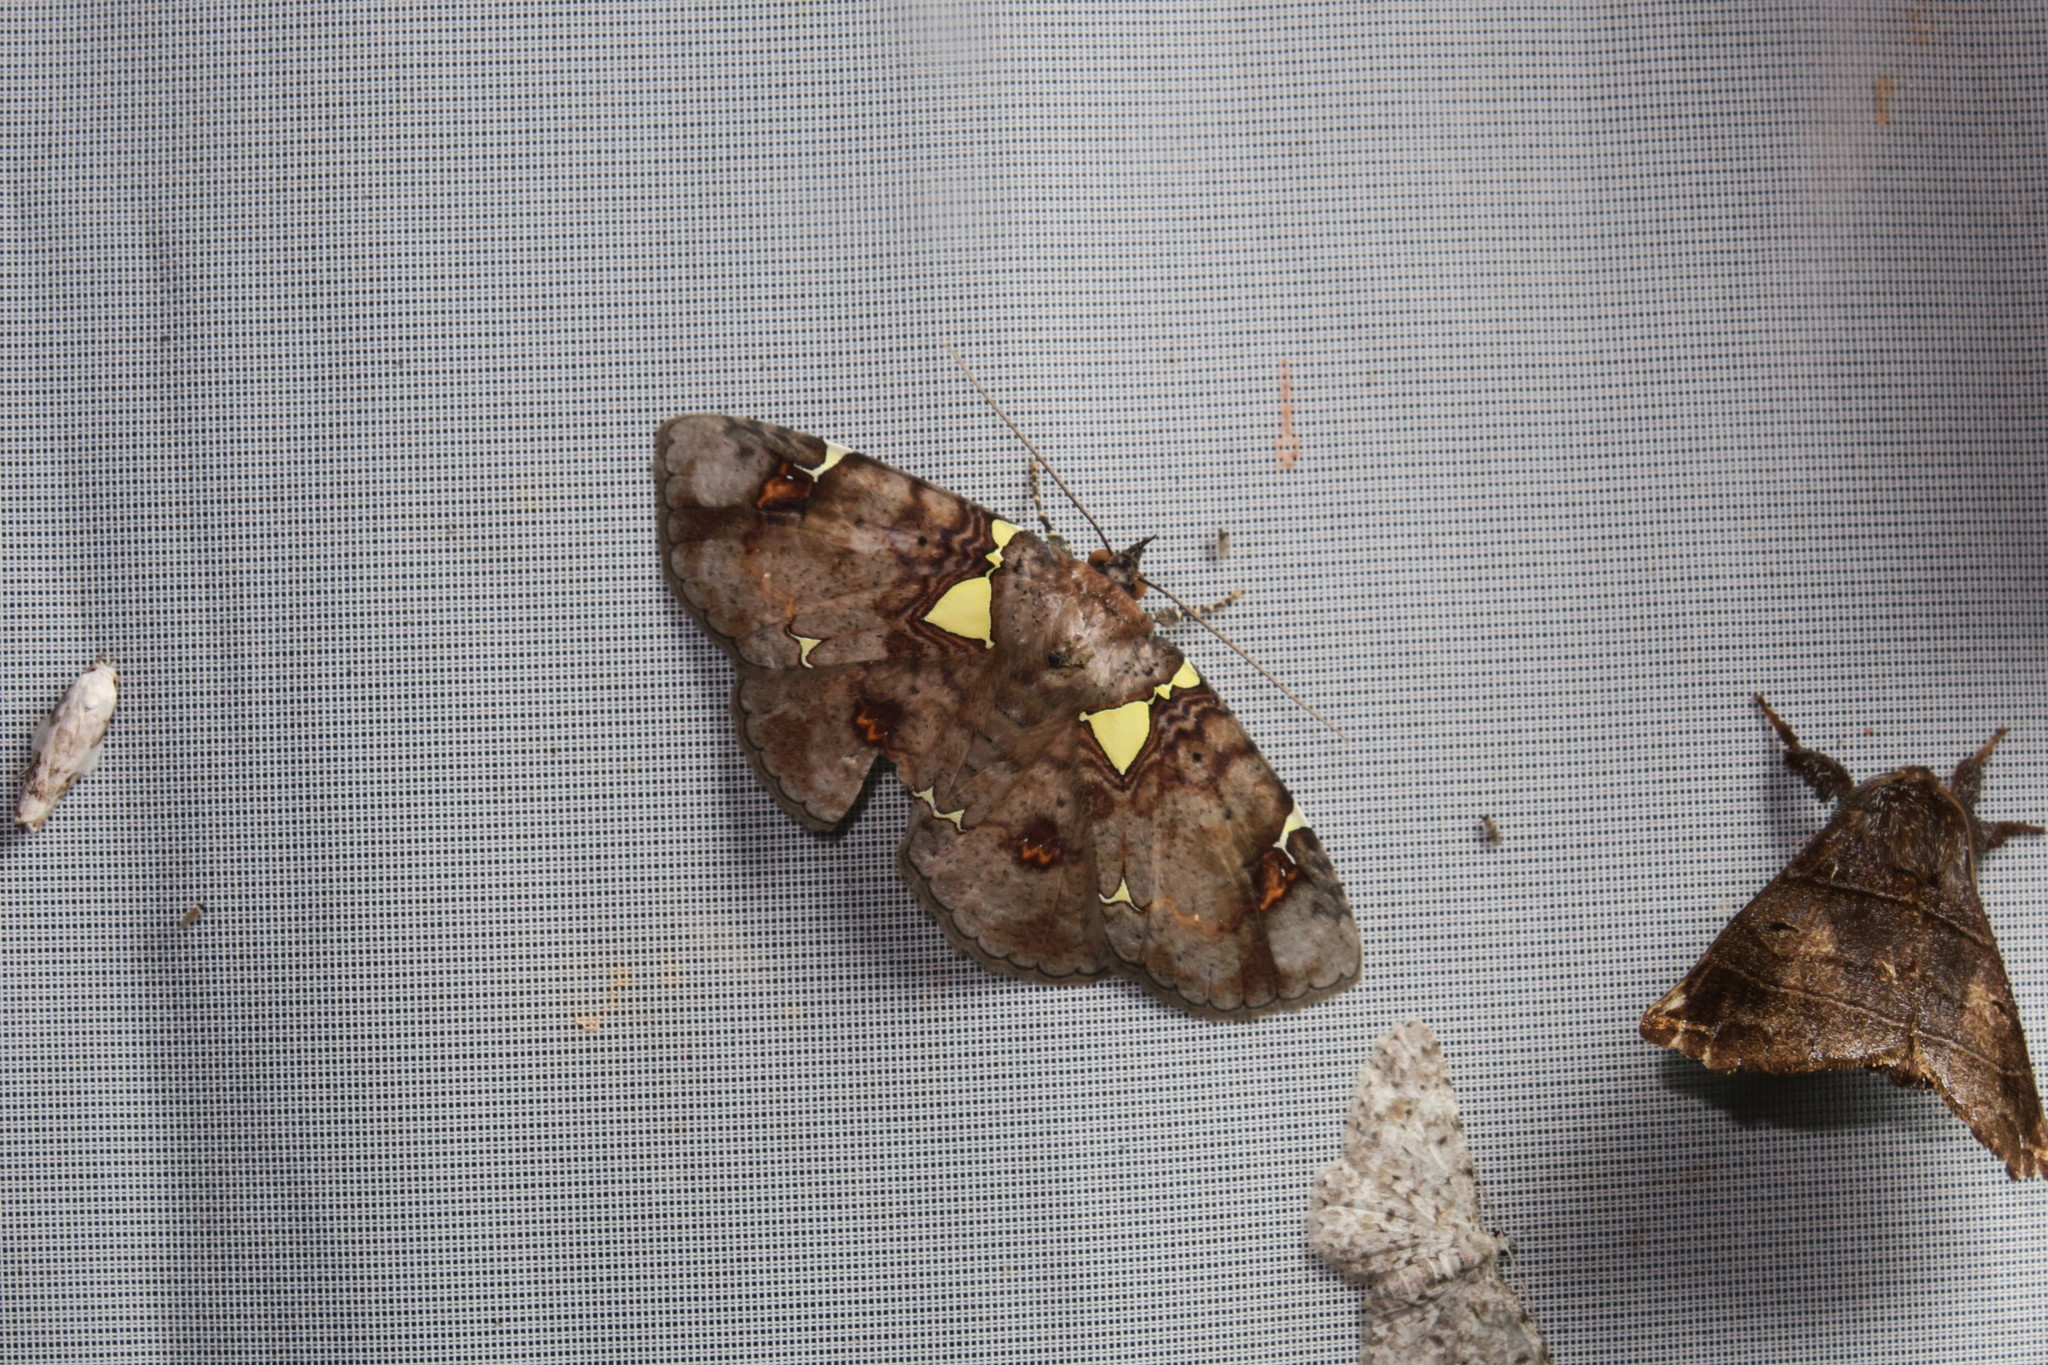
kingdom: Animalia
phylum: Arthropoda
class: Insecta
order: Lepidoptera
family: Erebidae
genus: Antiblemma
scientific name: Antiblemma albipunctata
